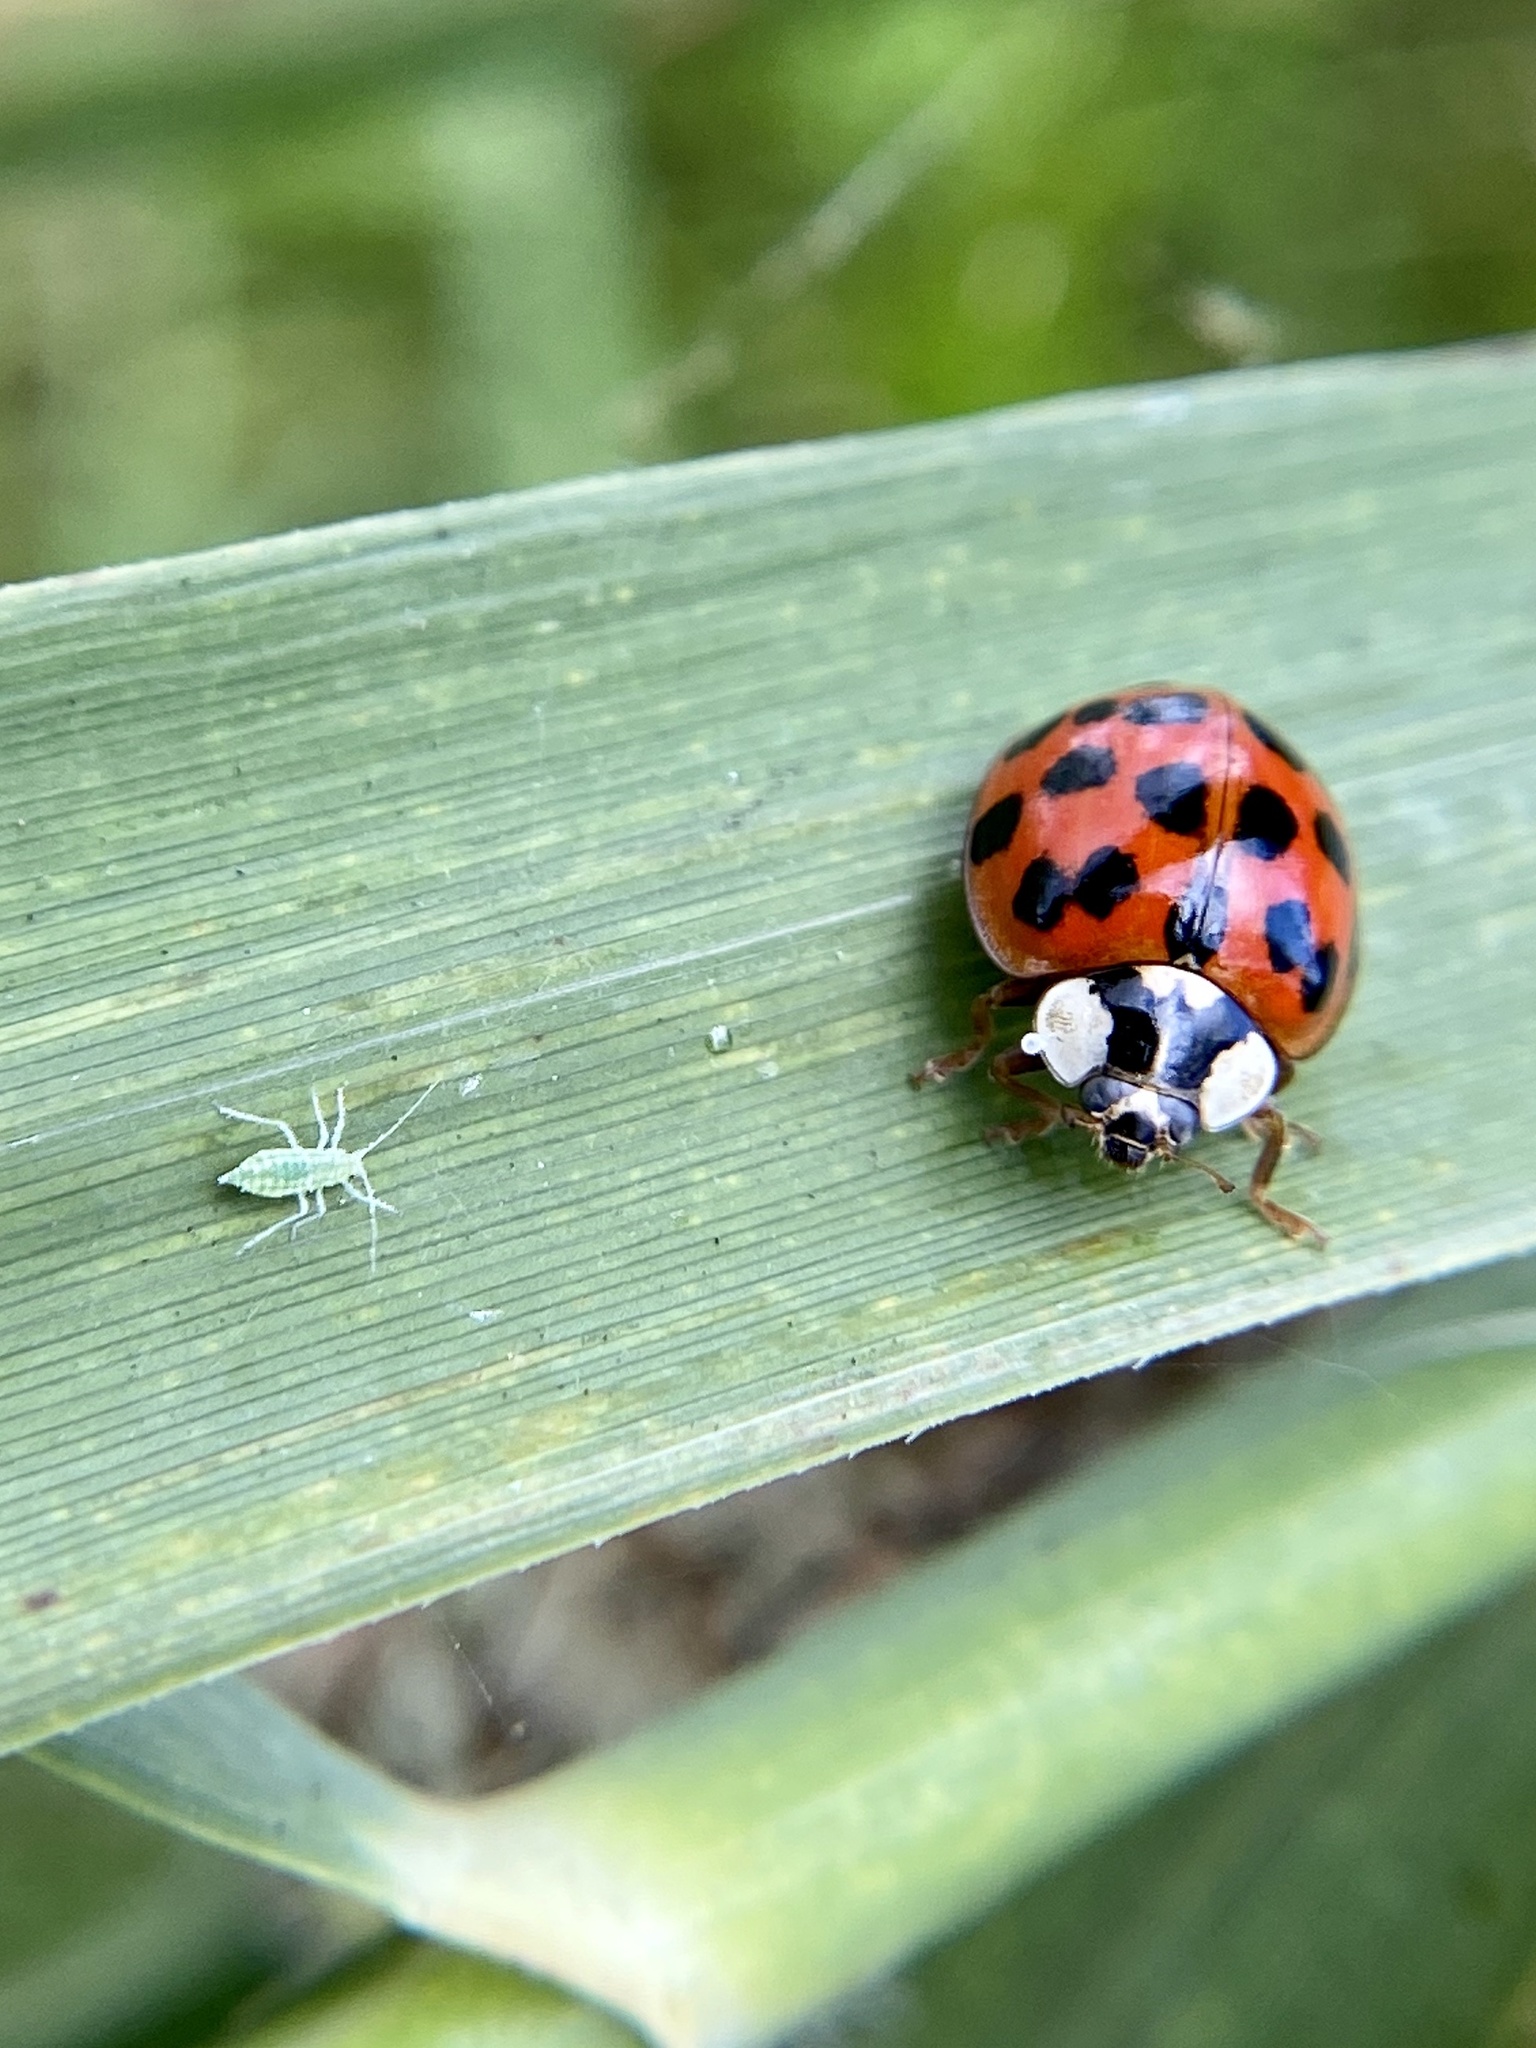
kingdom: Animalia
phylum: Arthropoda
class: Insecta
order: Coleoptera
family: Coccinellidae
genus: Harmonia
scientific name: Harmonia axyridis
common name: Harlequin ladybird
